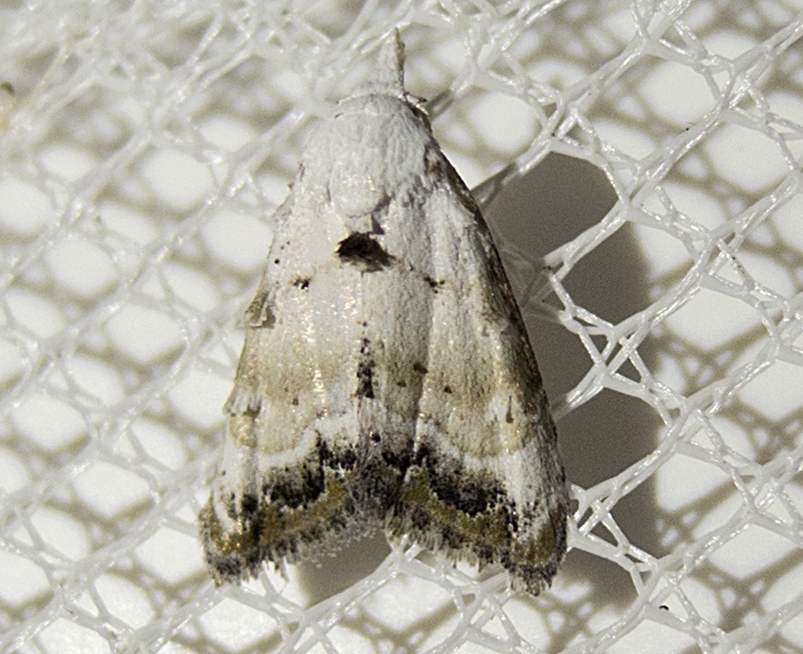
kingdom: Animalia
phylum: Arthropoda
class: Insecta
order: Lepidoptera
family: Nolidae
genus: Nola
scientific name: Nola chlamitulalis
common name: Jersey black arches
